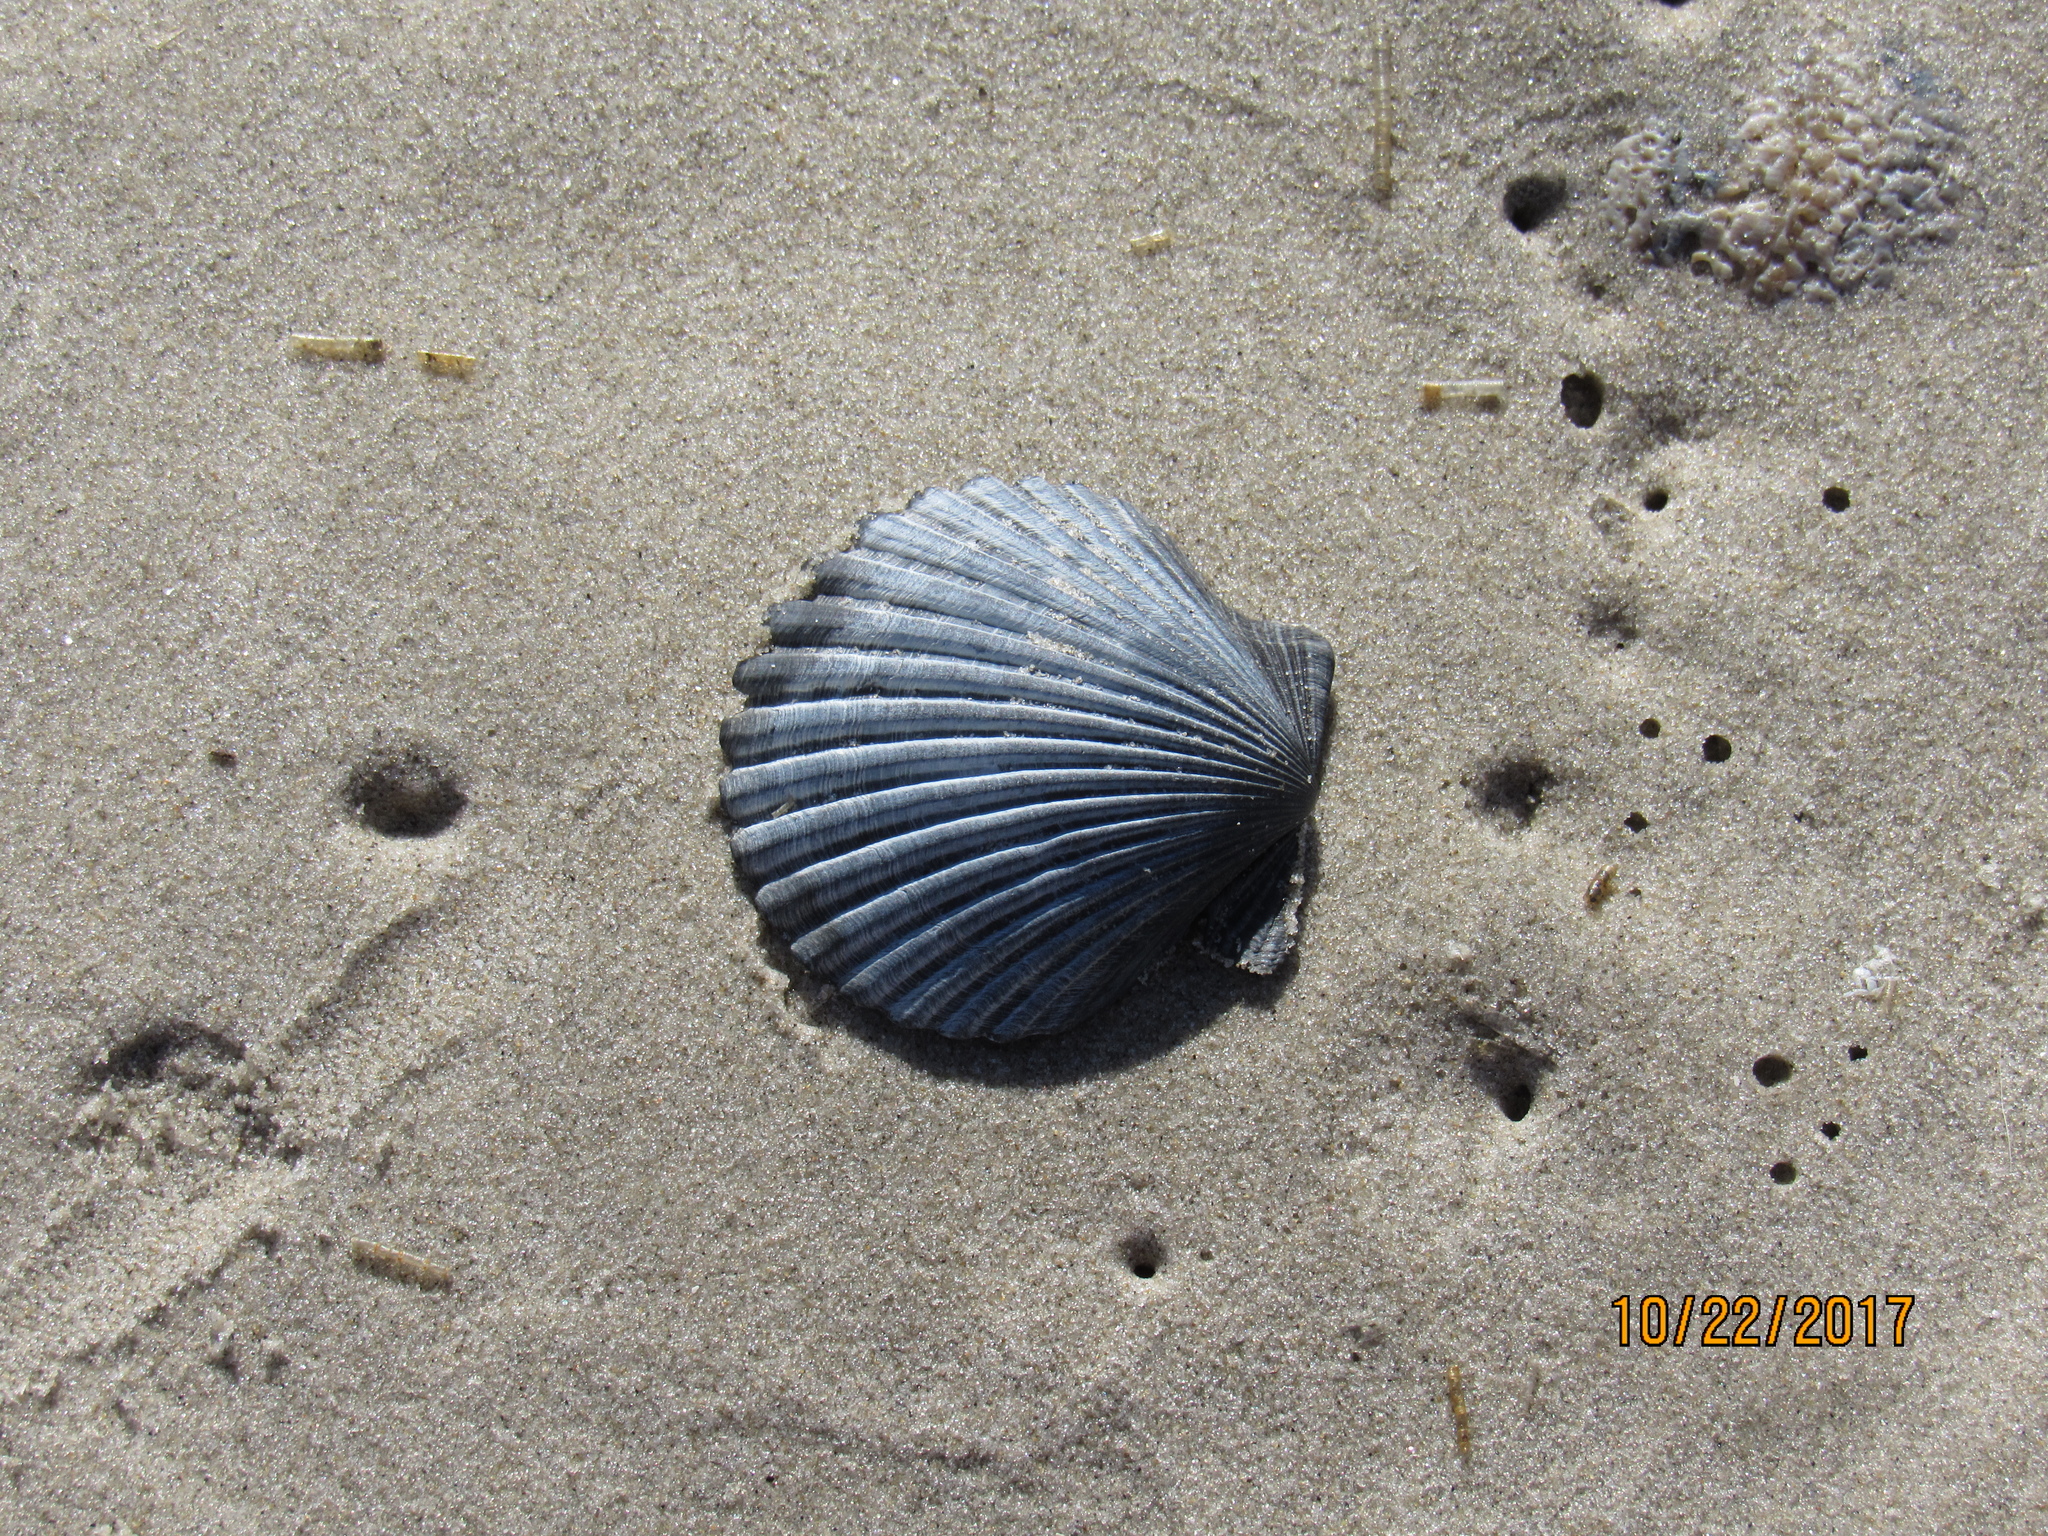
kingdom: Animalia
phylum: Mollusca
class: Bivalvia
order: Pectinida
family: Pectinidae
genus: Argopecten
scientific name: Argopecten irradians
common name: Atlantic bay scallop
